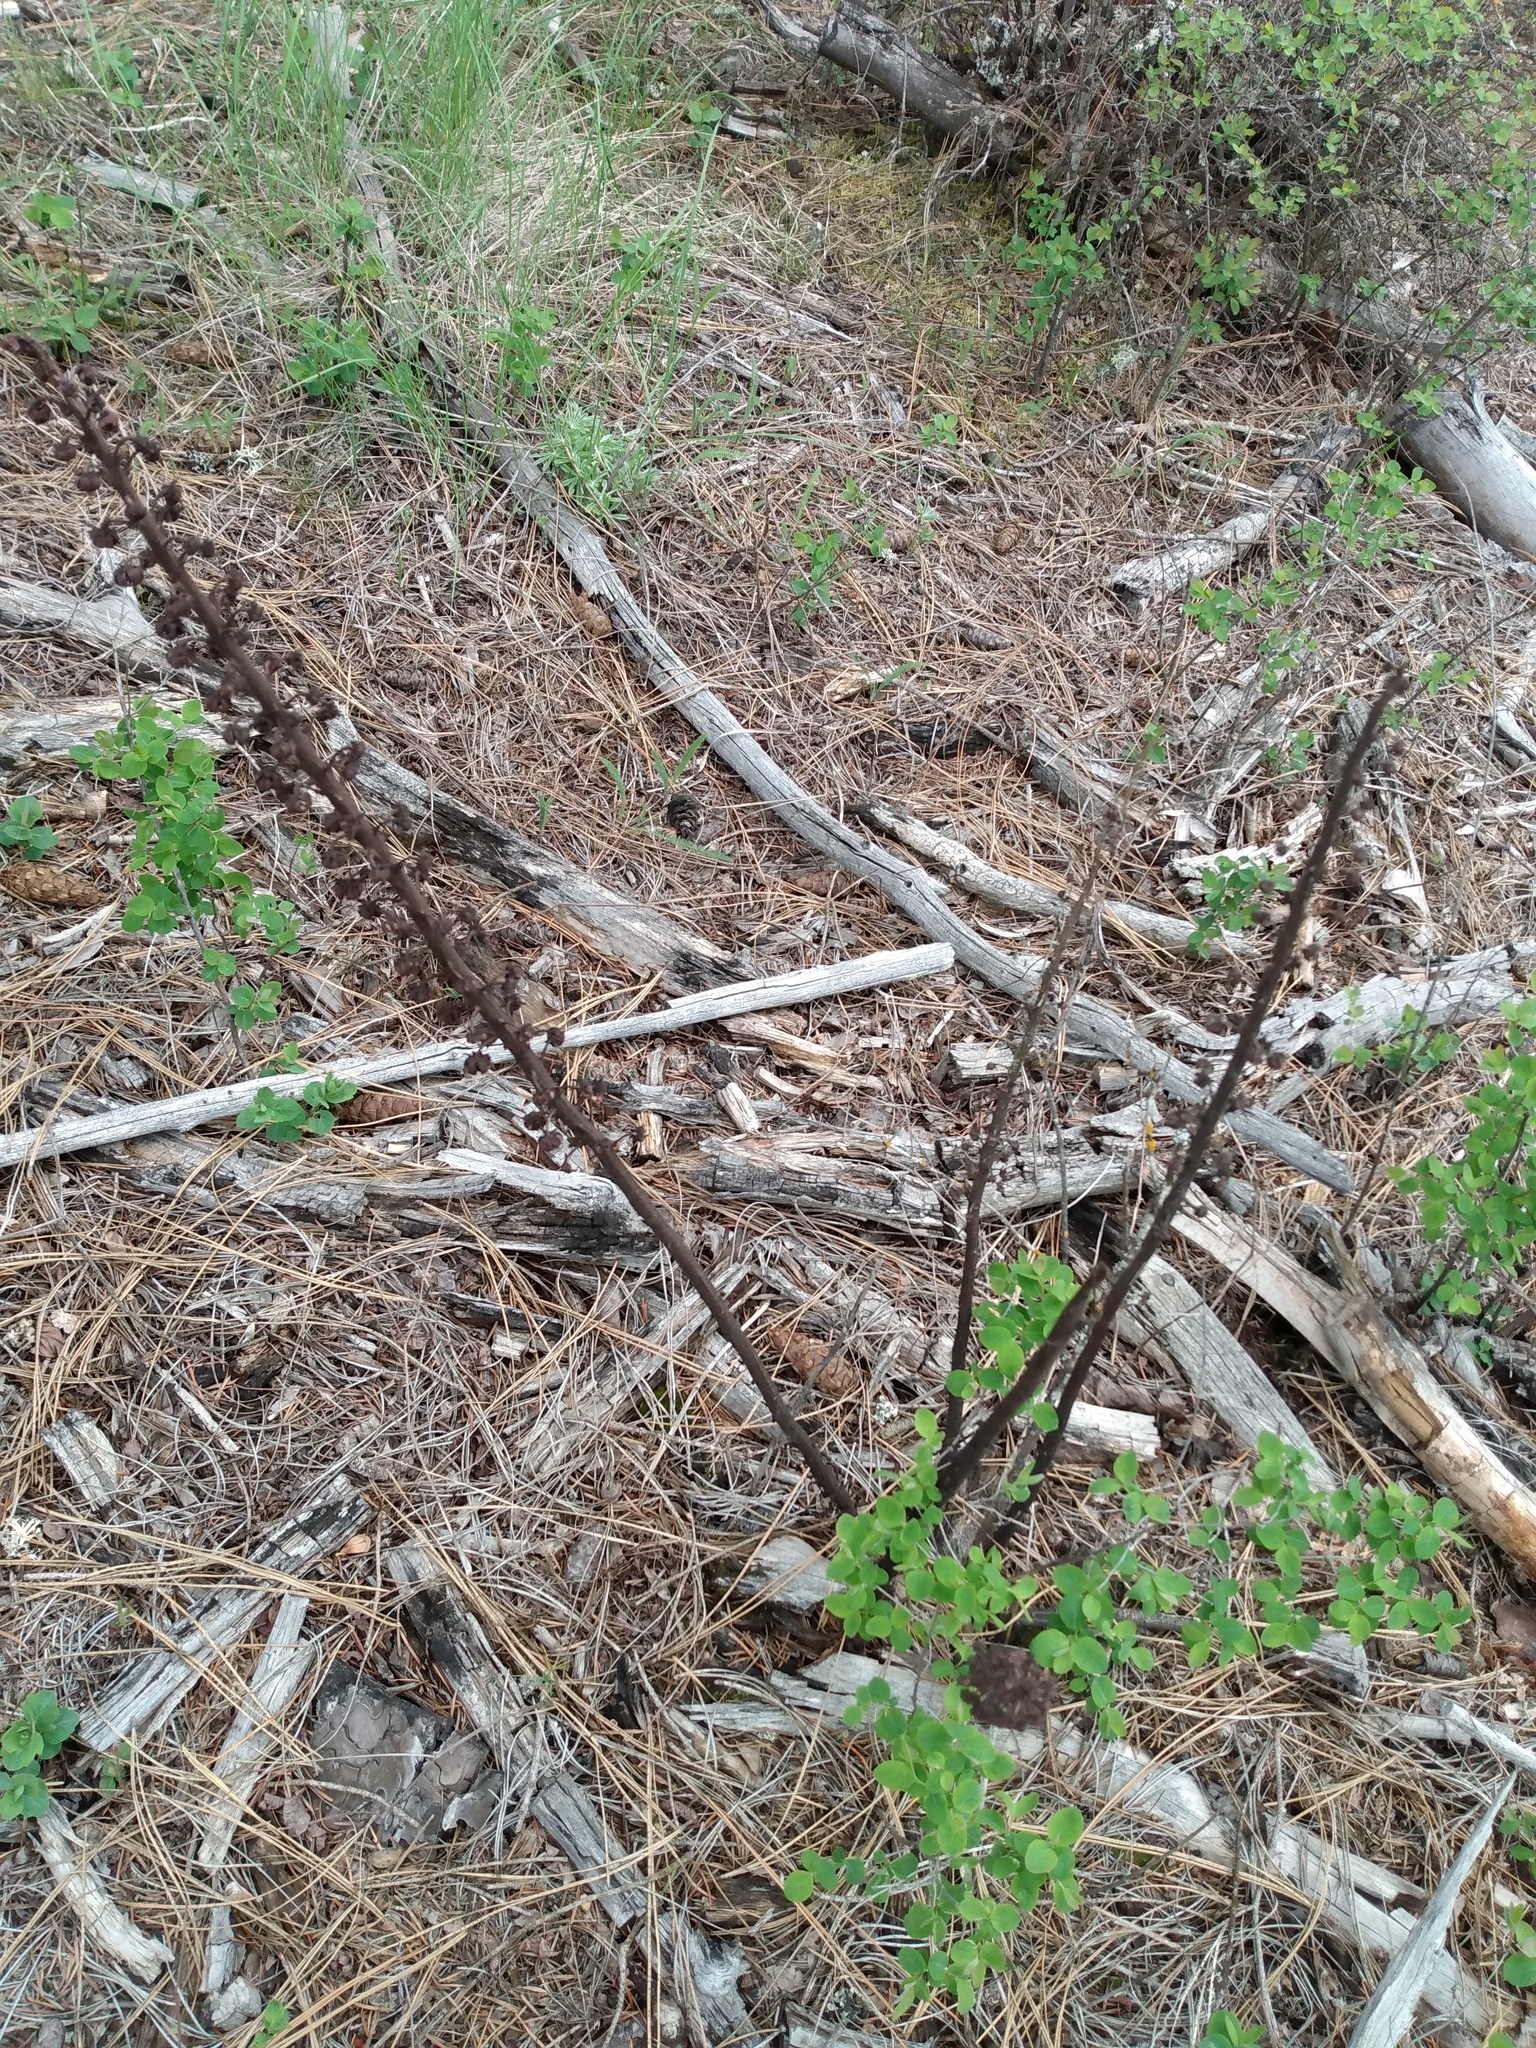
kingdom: Plantae
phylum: Tracheophyta
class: Magnoliopsida
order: Ericales
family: Ericaceae
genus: Pterospora
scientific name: Pterospora andromedea
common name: Giant bird's-nest
